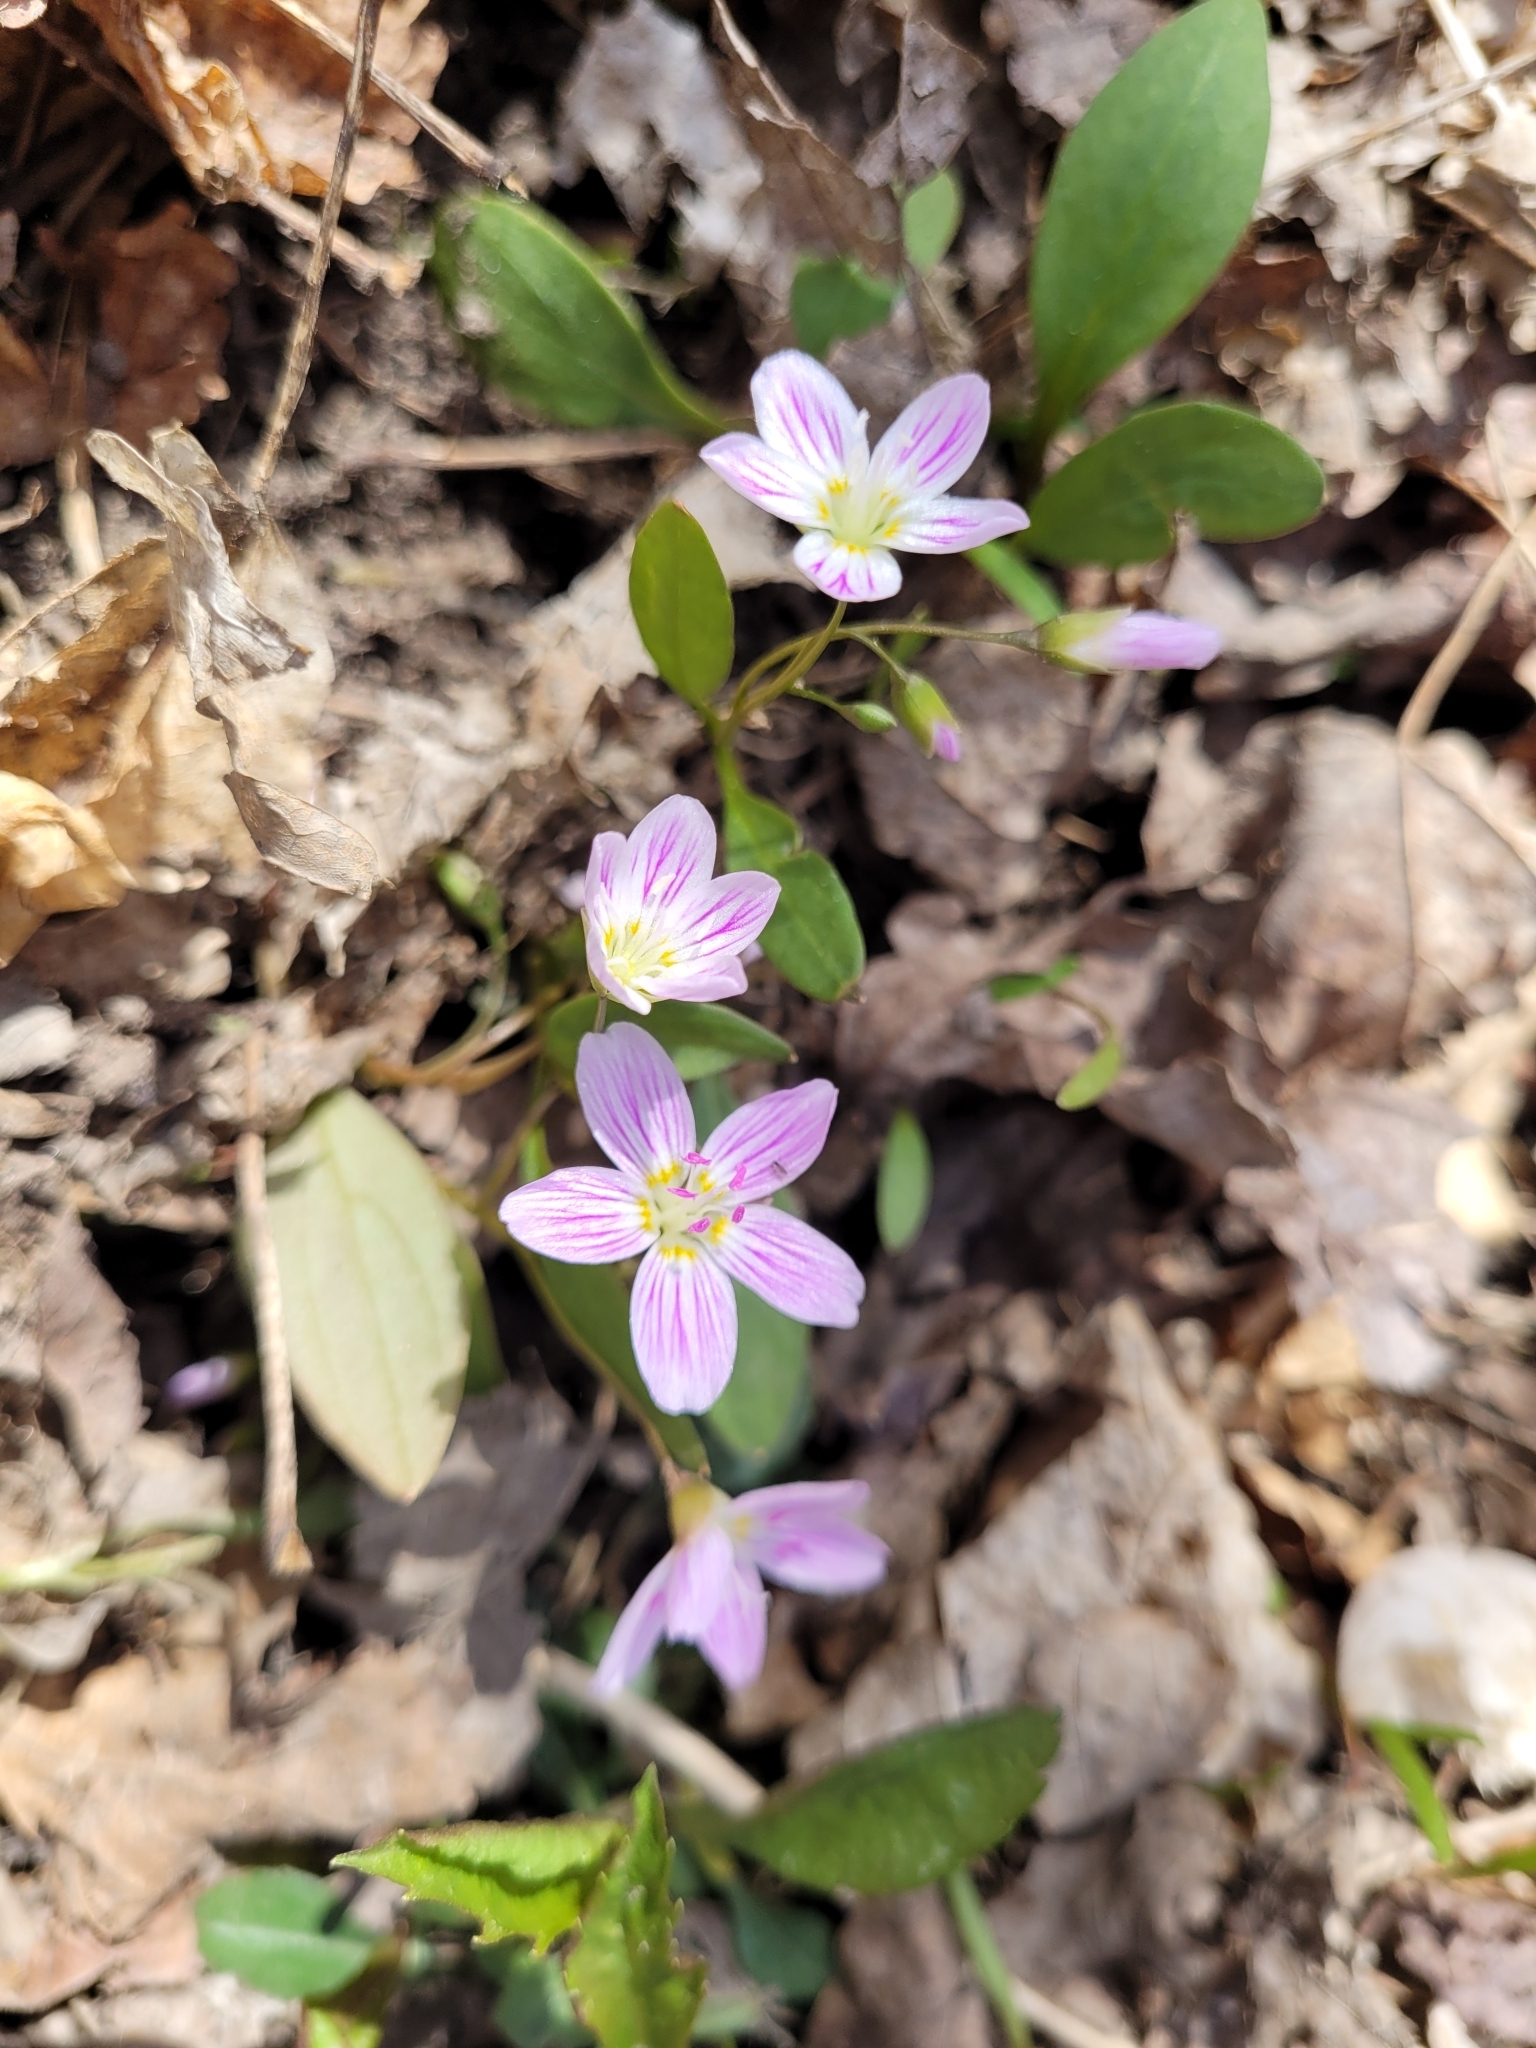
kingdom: Plantae
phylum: Tracheophyta
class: Magnoliopsida
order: Caryophyllales
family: Montiaceae
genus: Claytonia
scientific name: Claytonia caroliniana
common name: Carolina spring beauty
